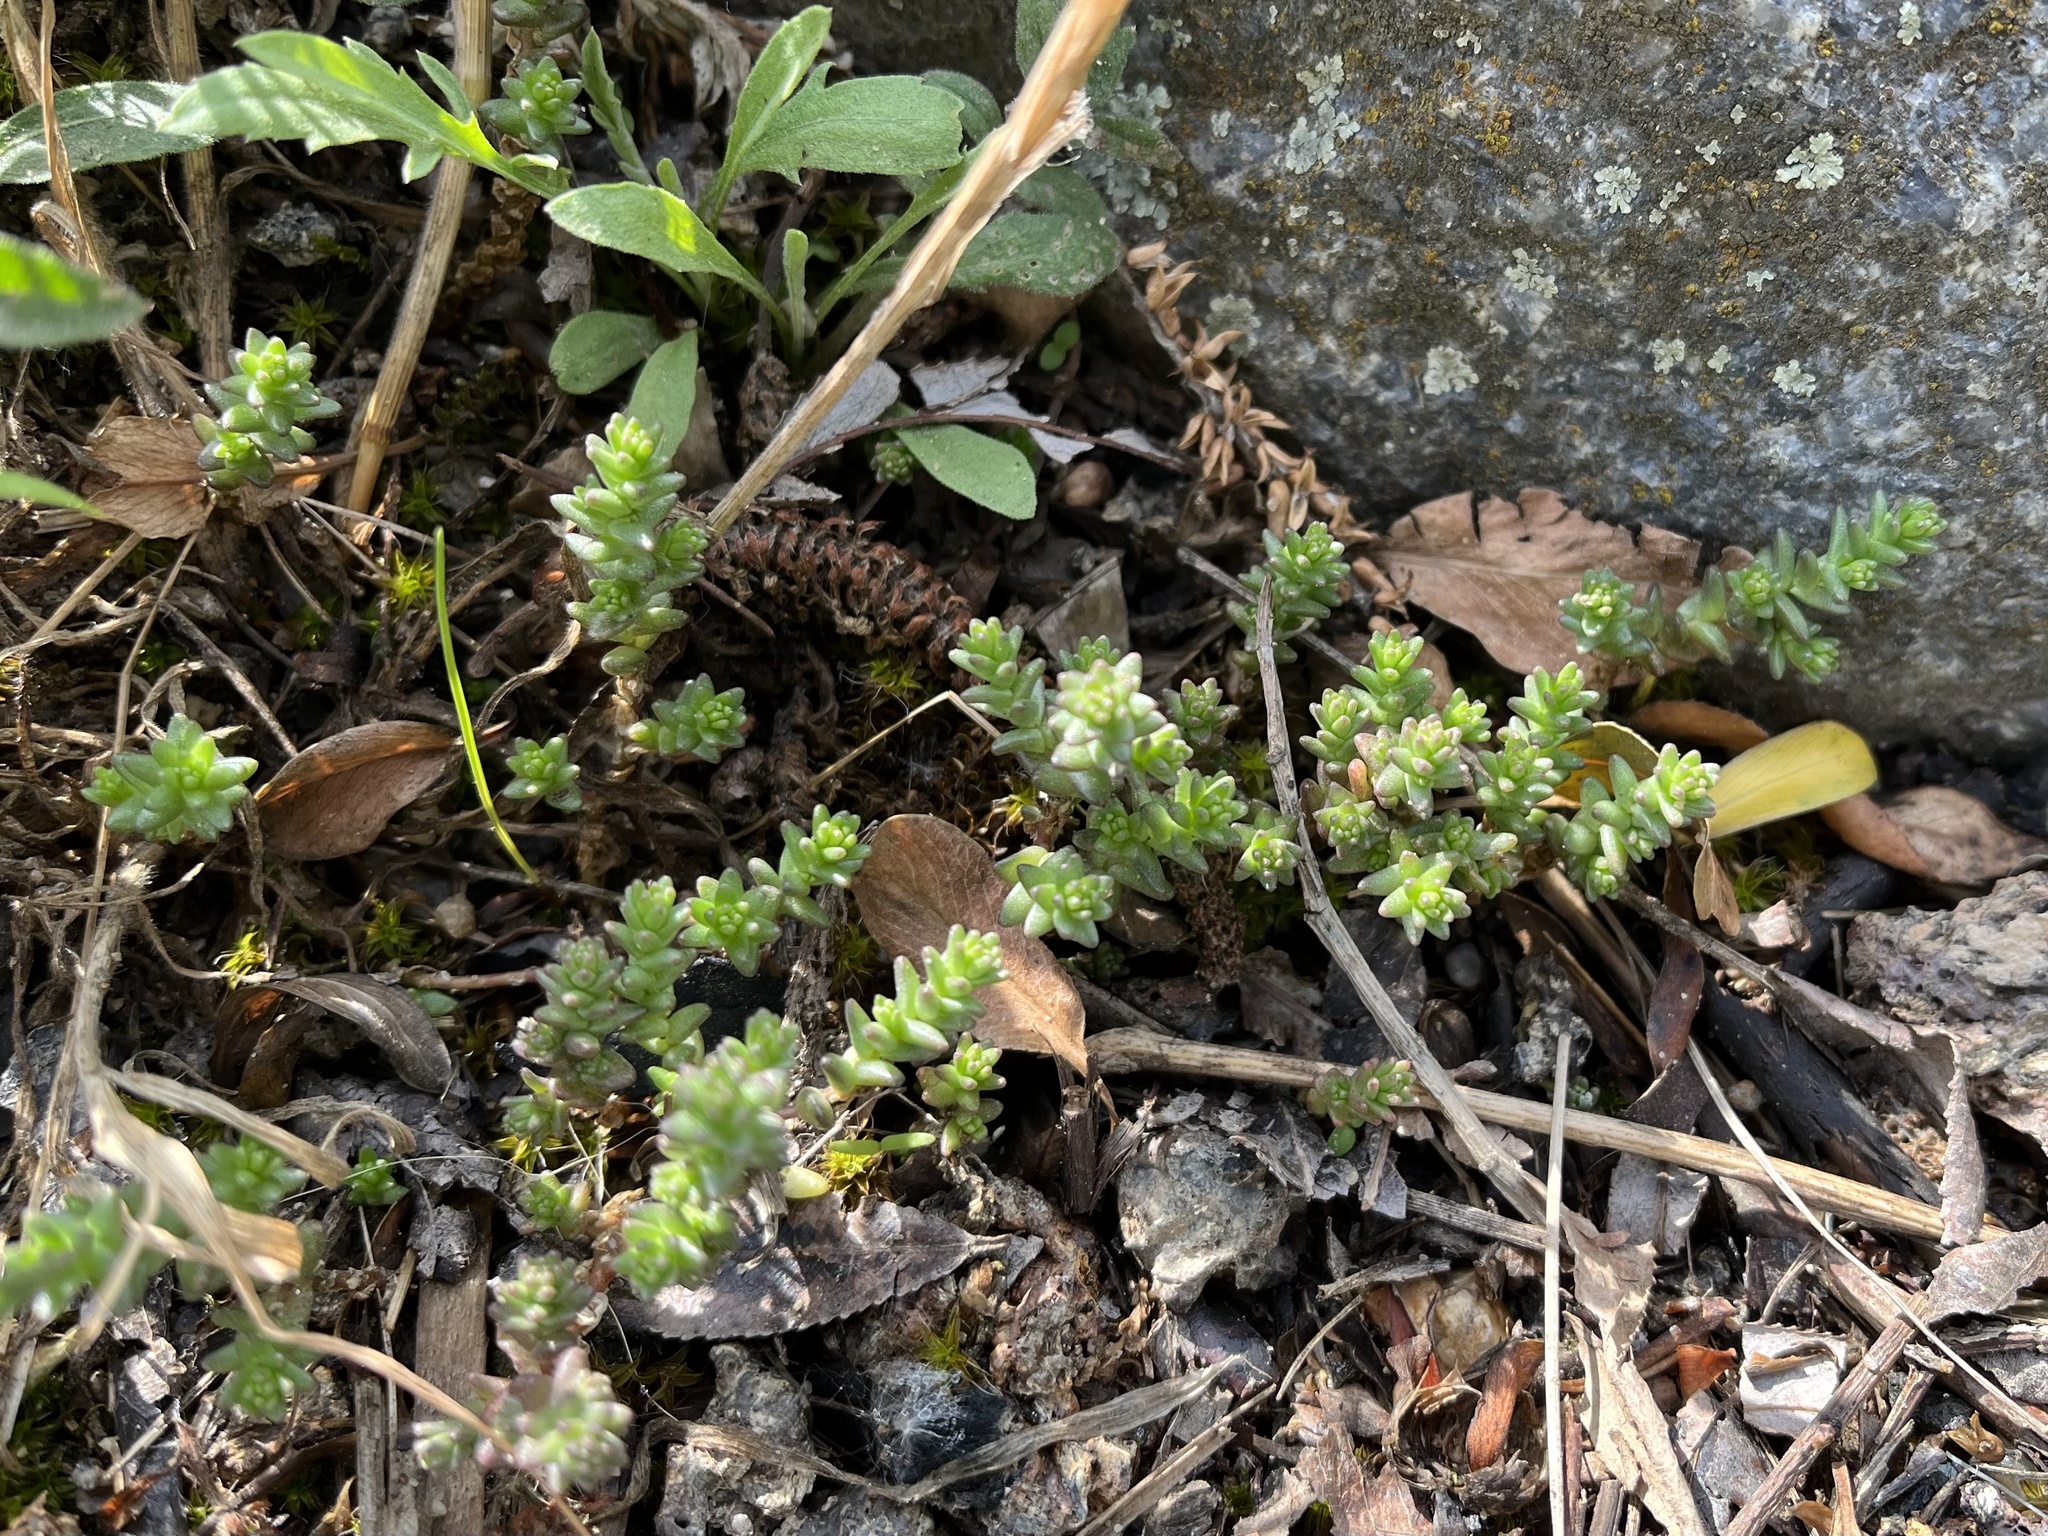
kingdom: Plantae
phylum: Tracheophyta
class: Magnoliopsida
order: Saxifragales
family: Crassulaceae
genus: Sedum
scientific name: Sedum acre
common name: Biting stonecrop
